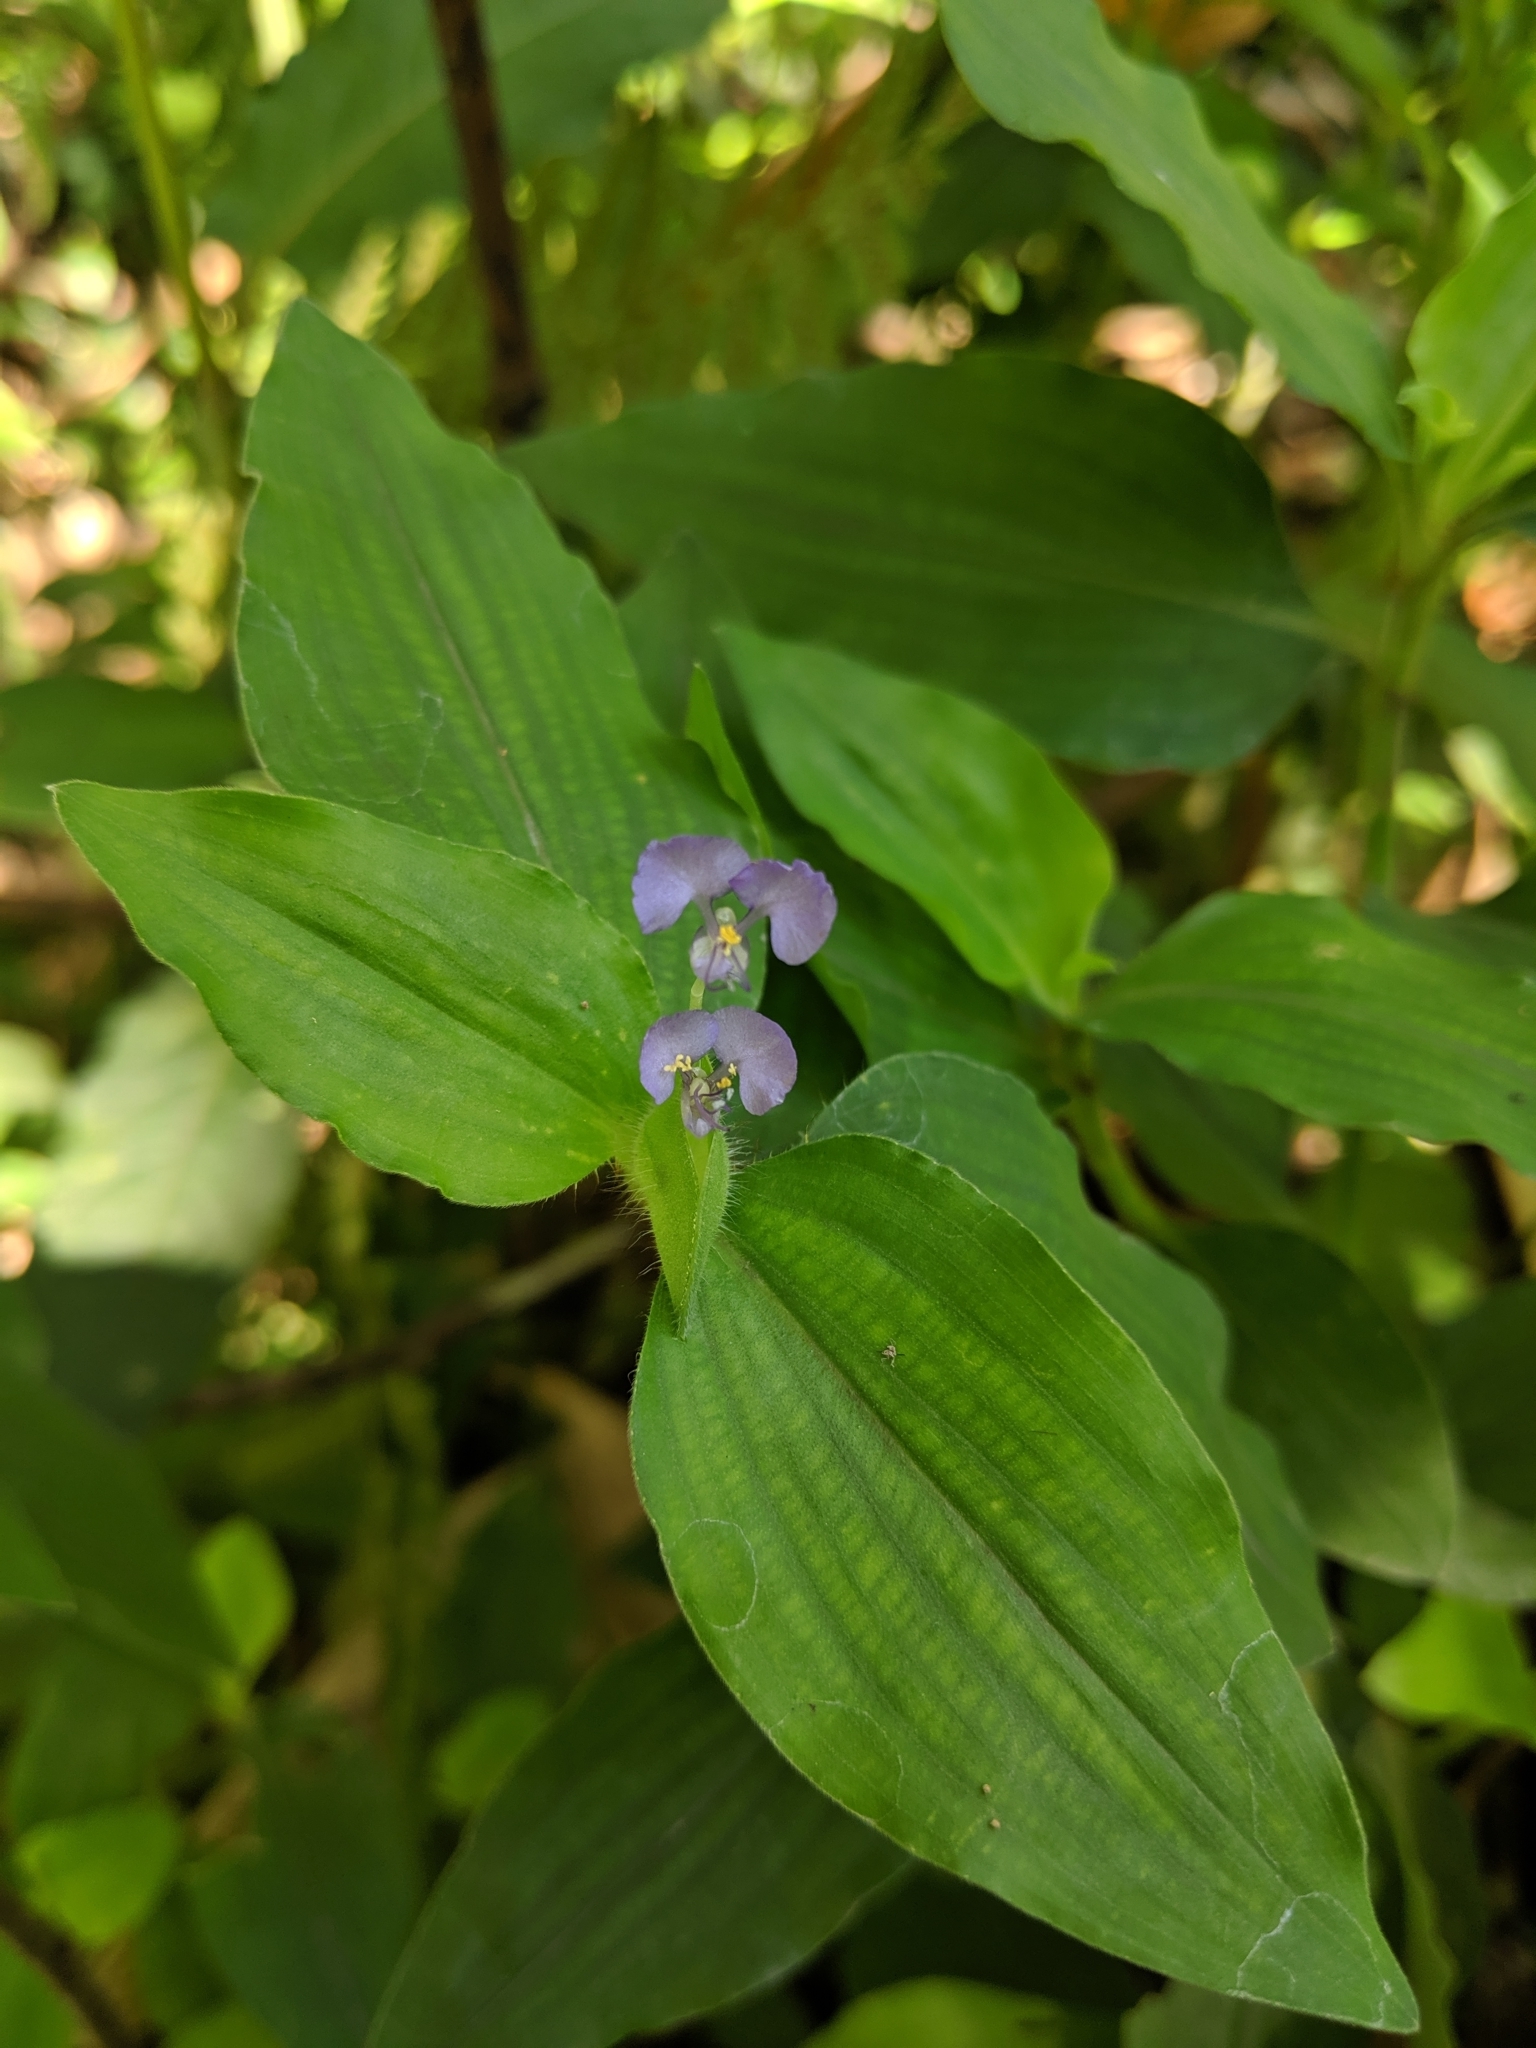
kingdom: Plantae
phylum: Tracheophyta
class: Liliopsida
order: Commelinales
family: Commelinaceae
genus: Commelina
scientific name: Commelina benghalensis
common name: Jio
